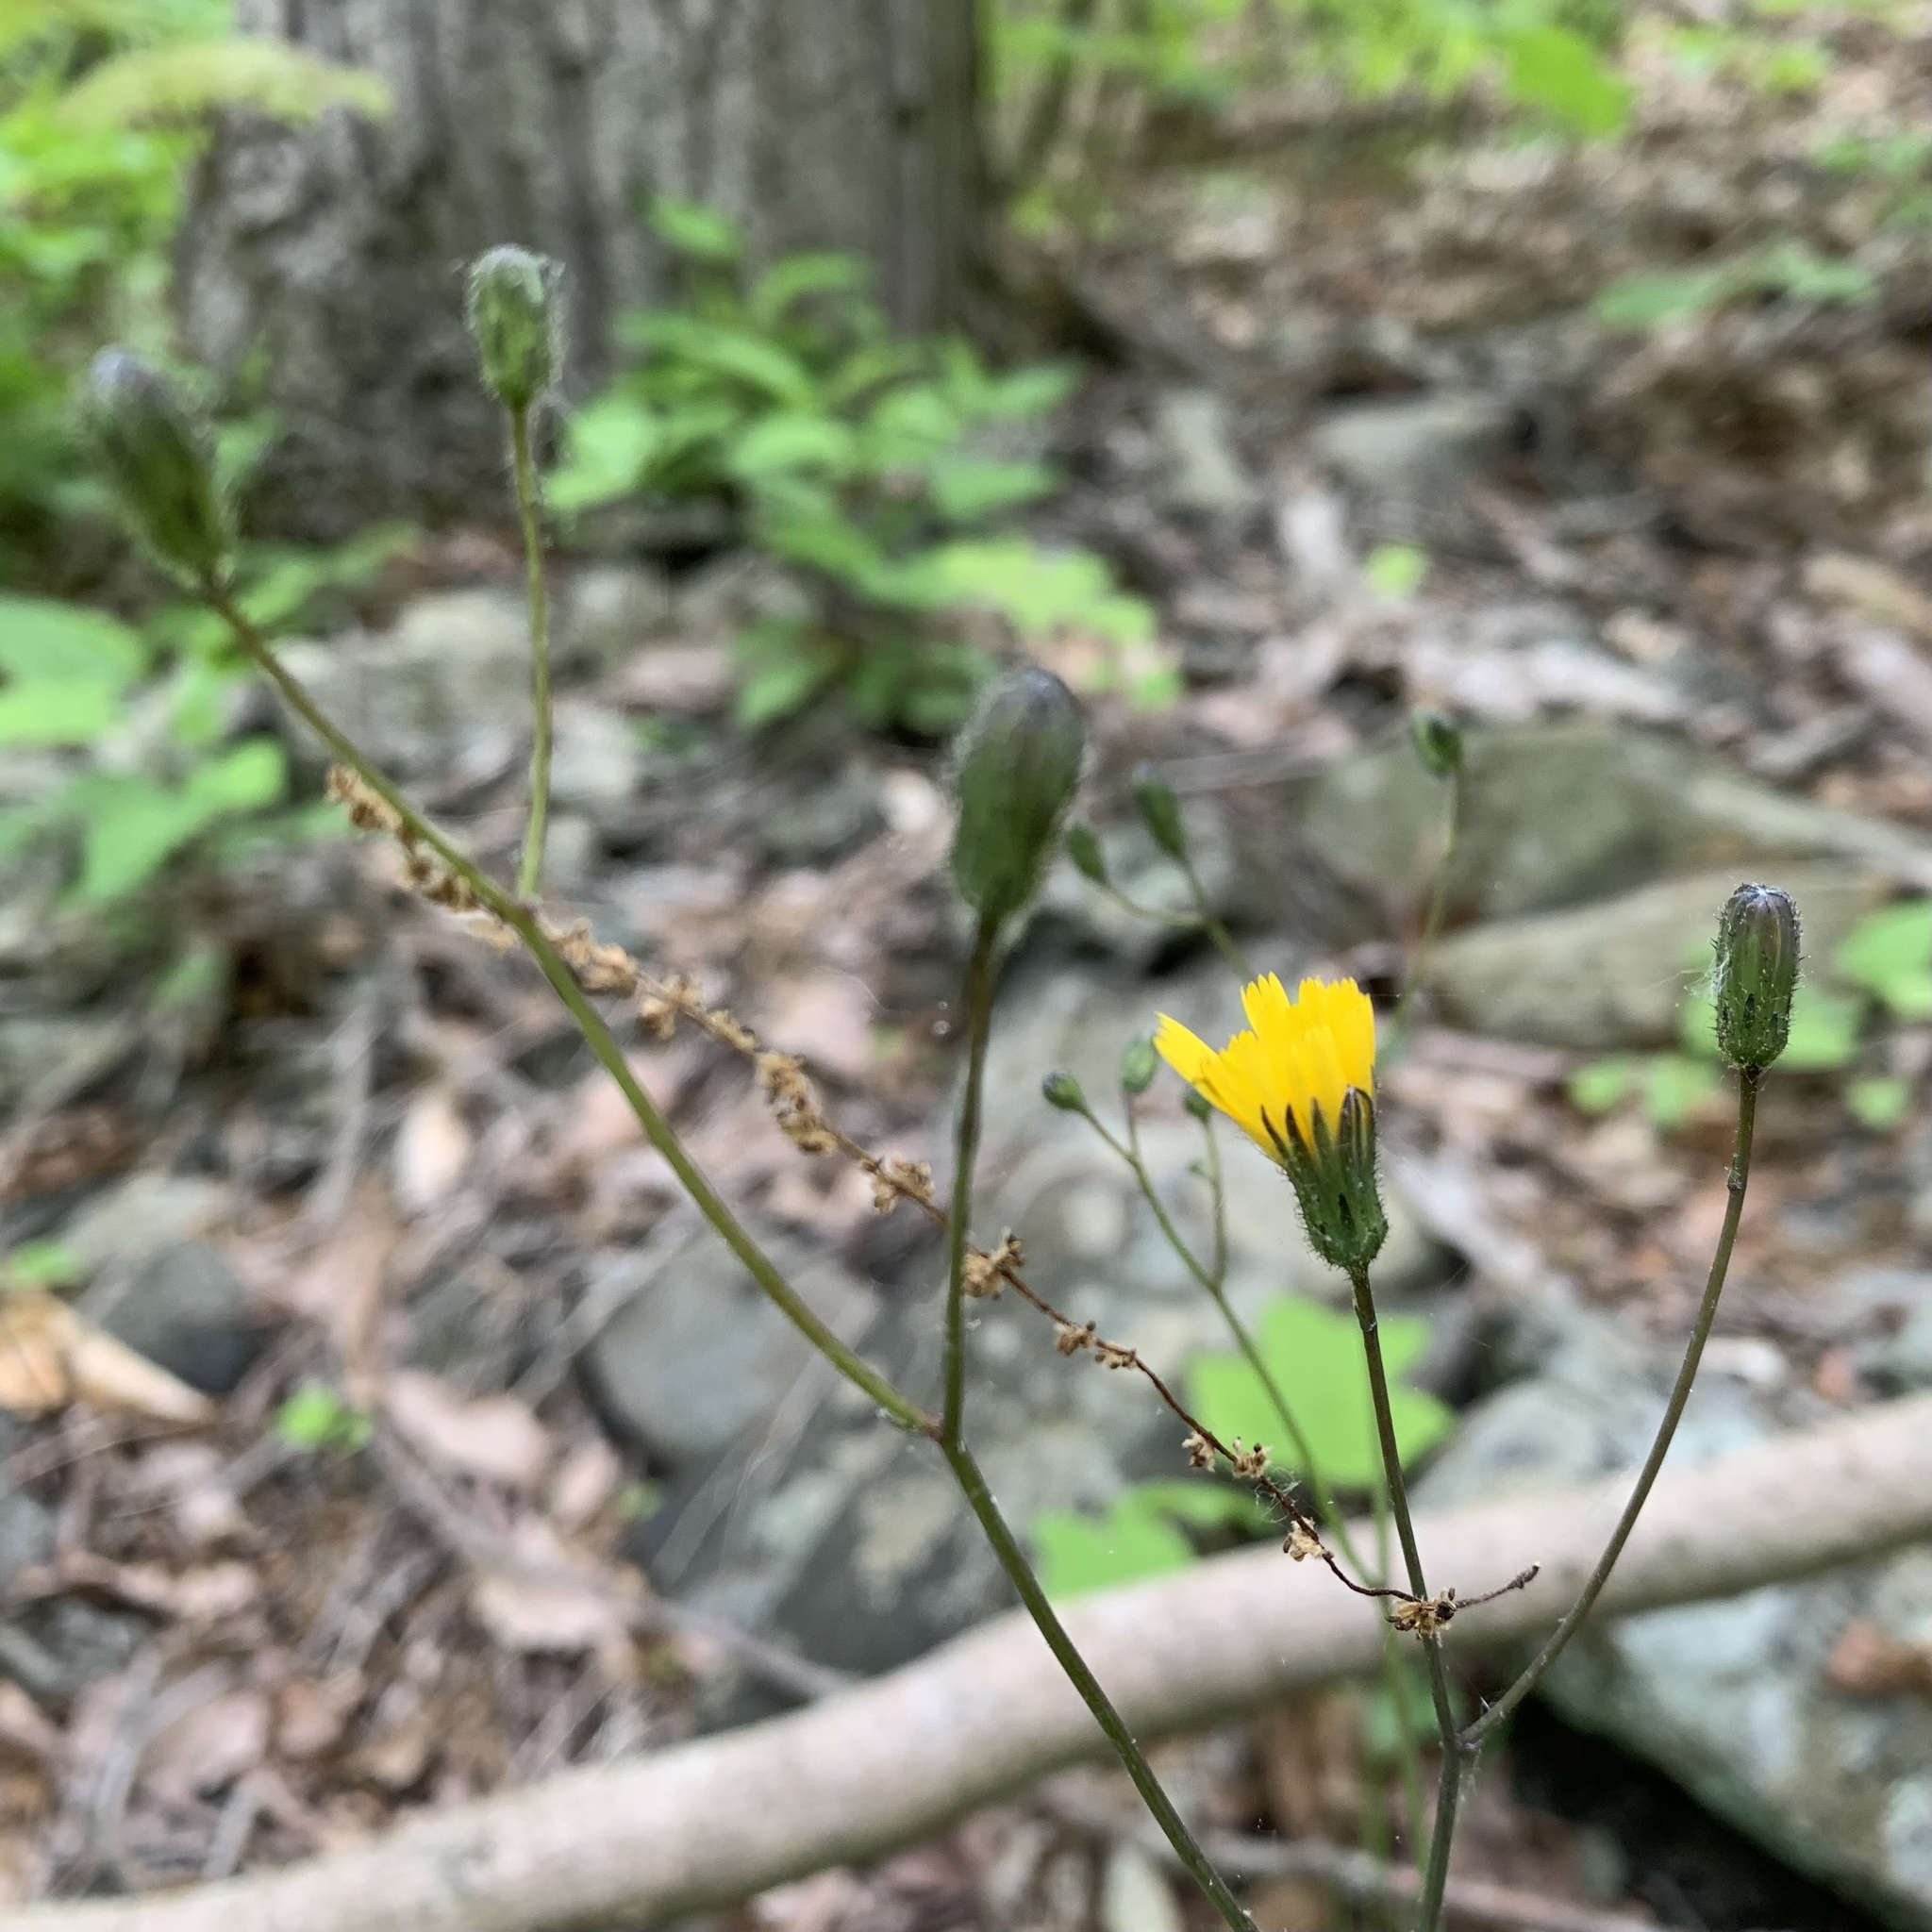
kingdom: Plantae
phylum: Tracheophyta
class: Magnoliopsida
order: Asterales
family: Asteraceae
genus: Hieracium
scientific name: Hieracium venosum
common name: Rattlesnake hawkweed
